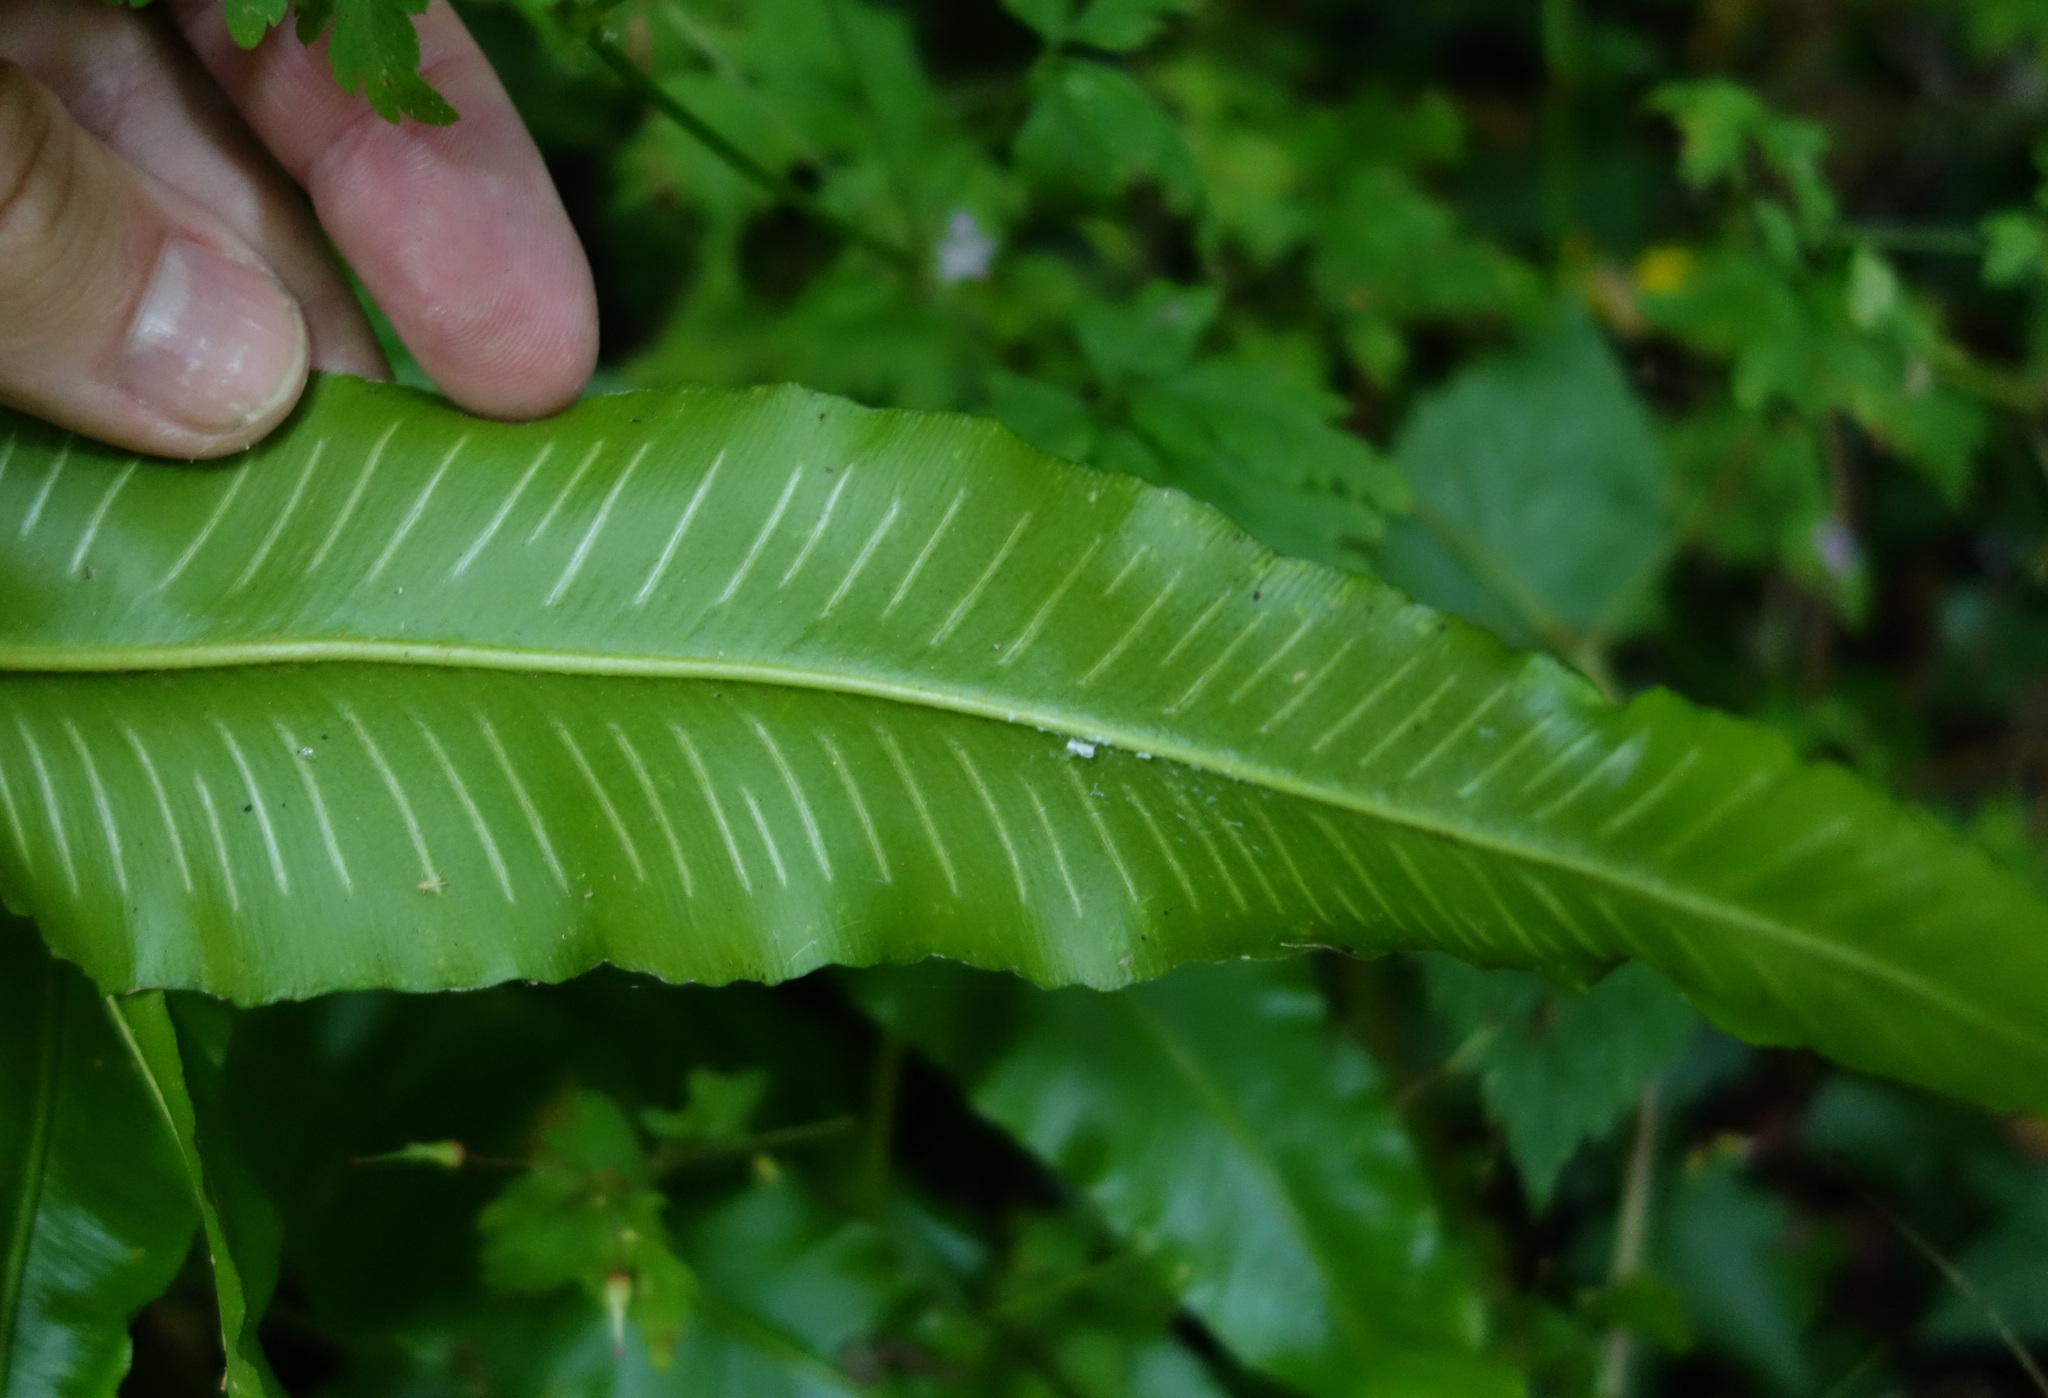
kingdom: Plantae
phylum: Tracheophyta
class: Polypodiopsida
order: Polypodiales
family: Aspleniaceae
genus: Asplenium
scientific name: Asplenium scolopendrium
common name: Hart's-tongue fern
